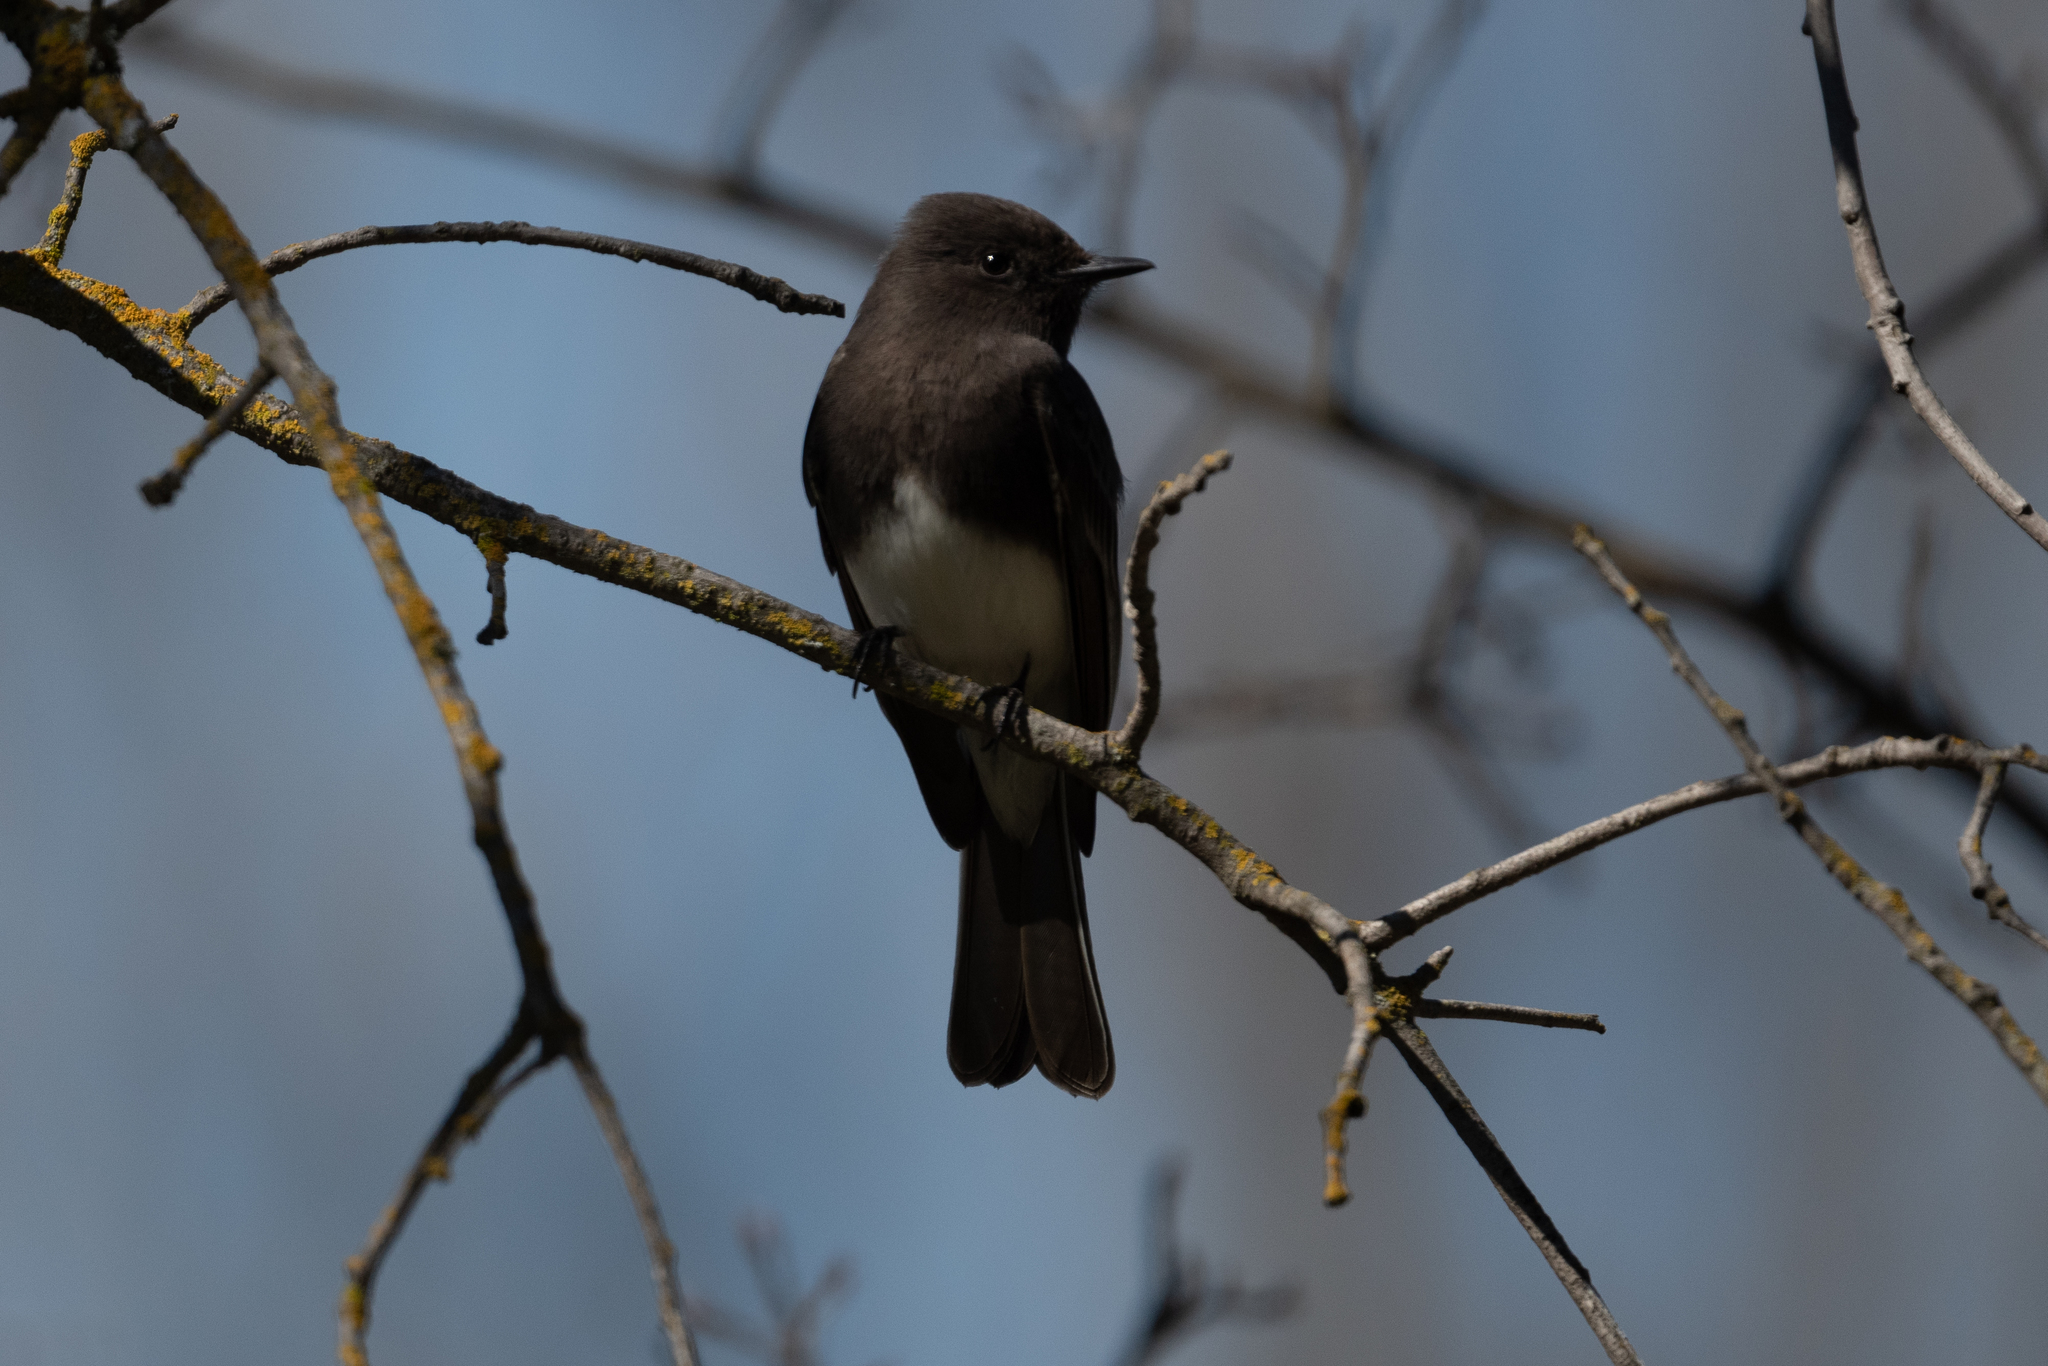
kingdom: Animalia
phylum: Chordata
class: Aves
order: Passeriformes
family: Tyrannidae
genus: Sayornis
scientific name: Sayornis nigricans
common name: Black phoebe
